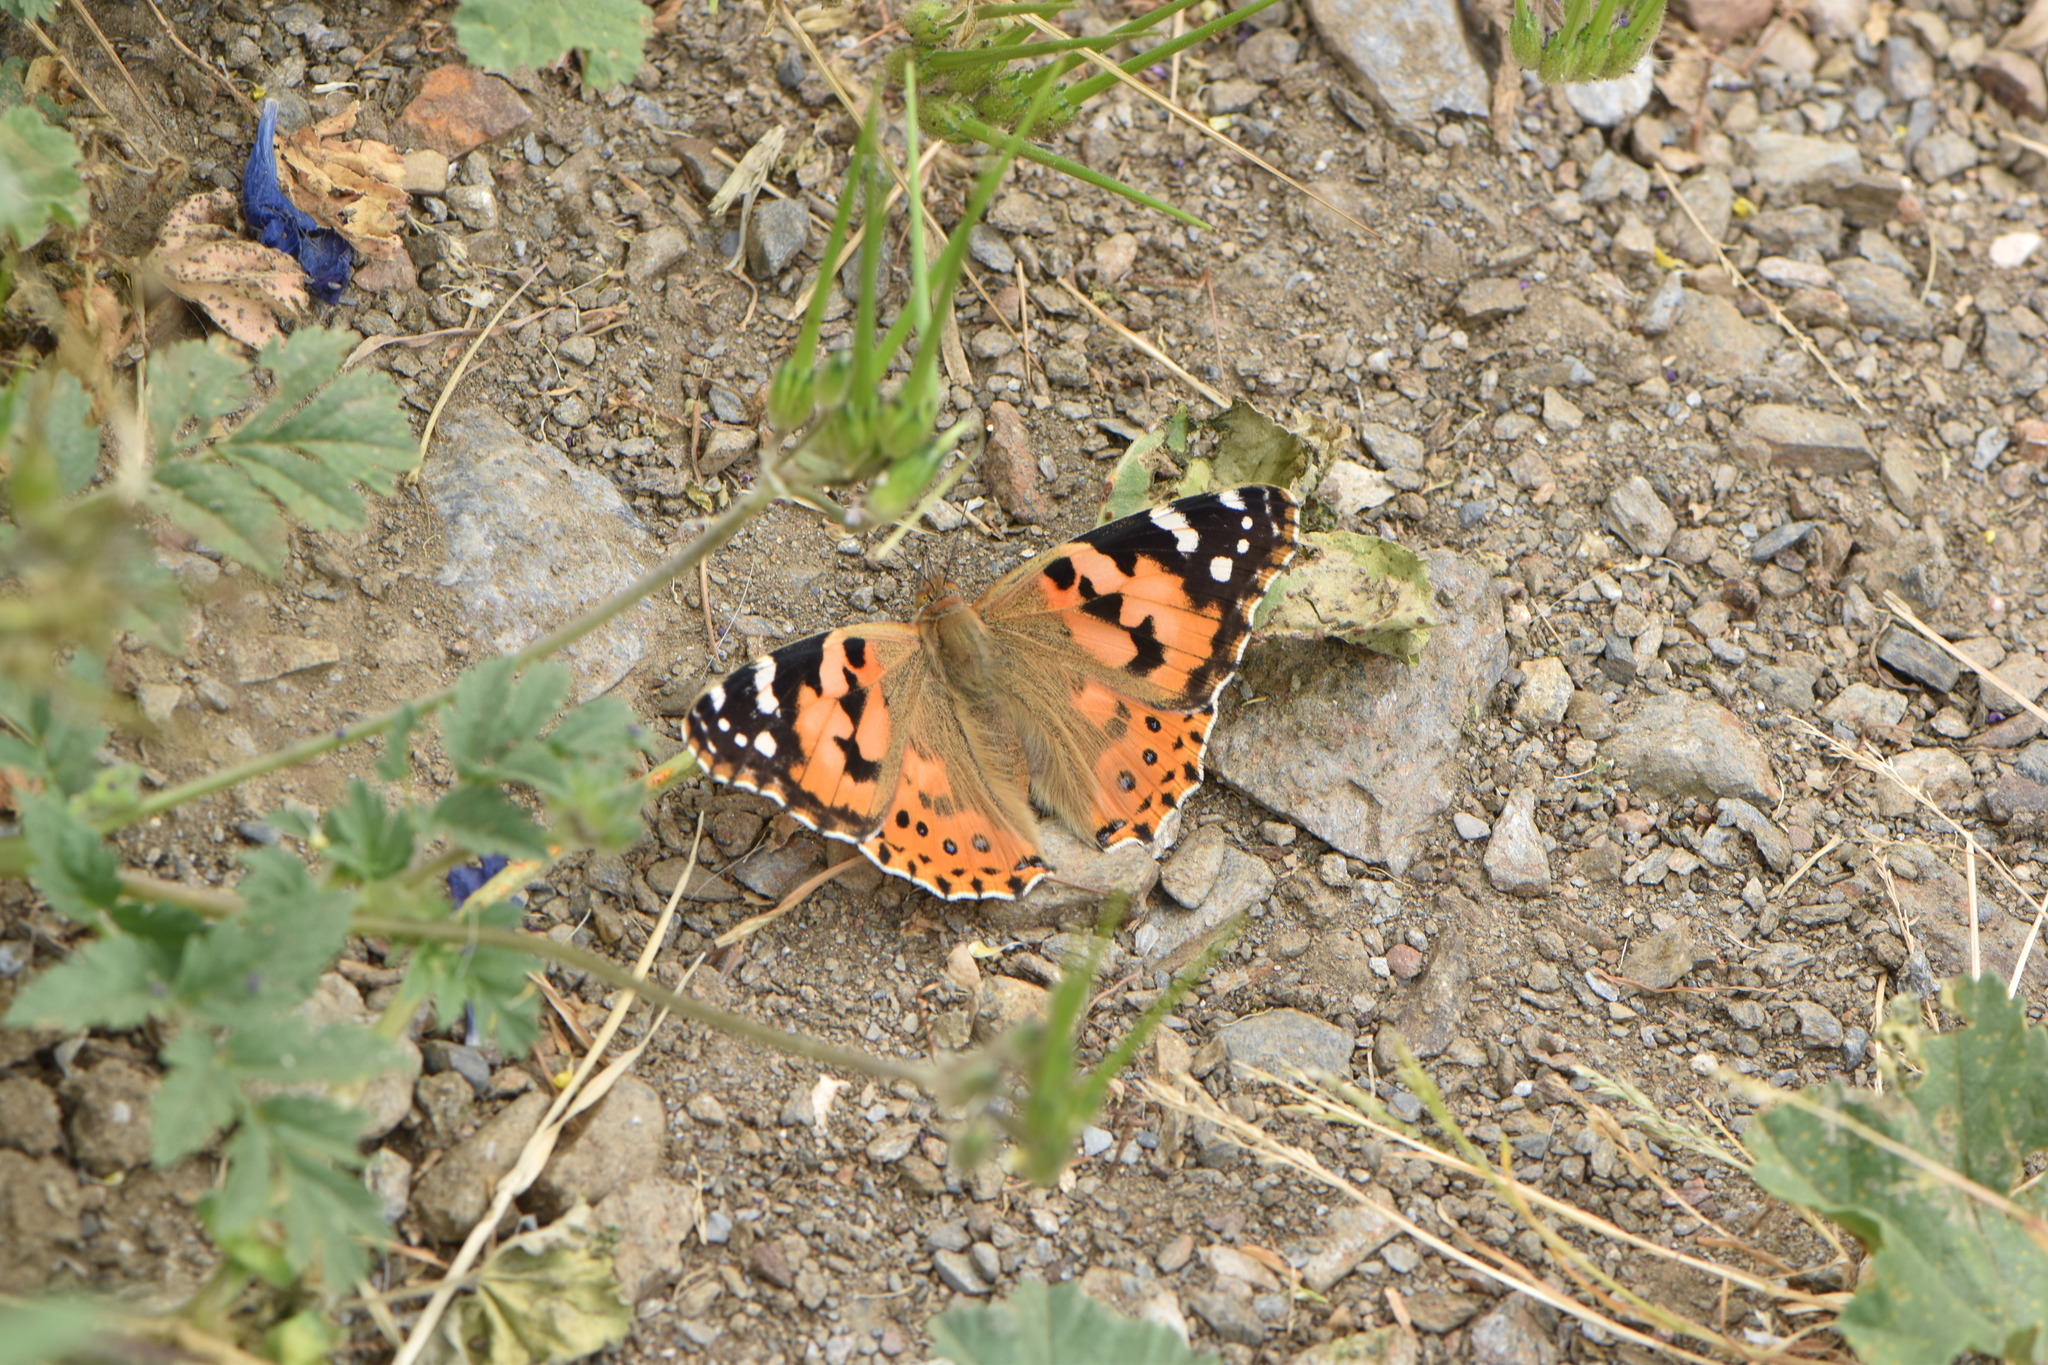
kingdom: Animalia
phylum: Arthropoda
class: Insecta
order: Lepidoptera
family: Nymphalidae
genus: Vanessa
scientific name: Vanessa cardui
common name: Painted lady
